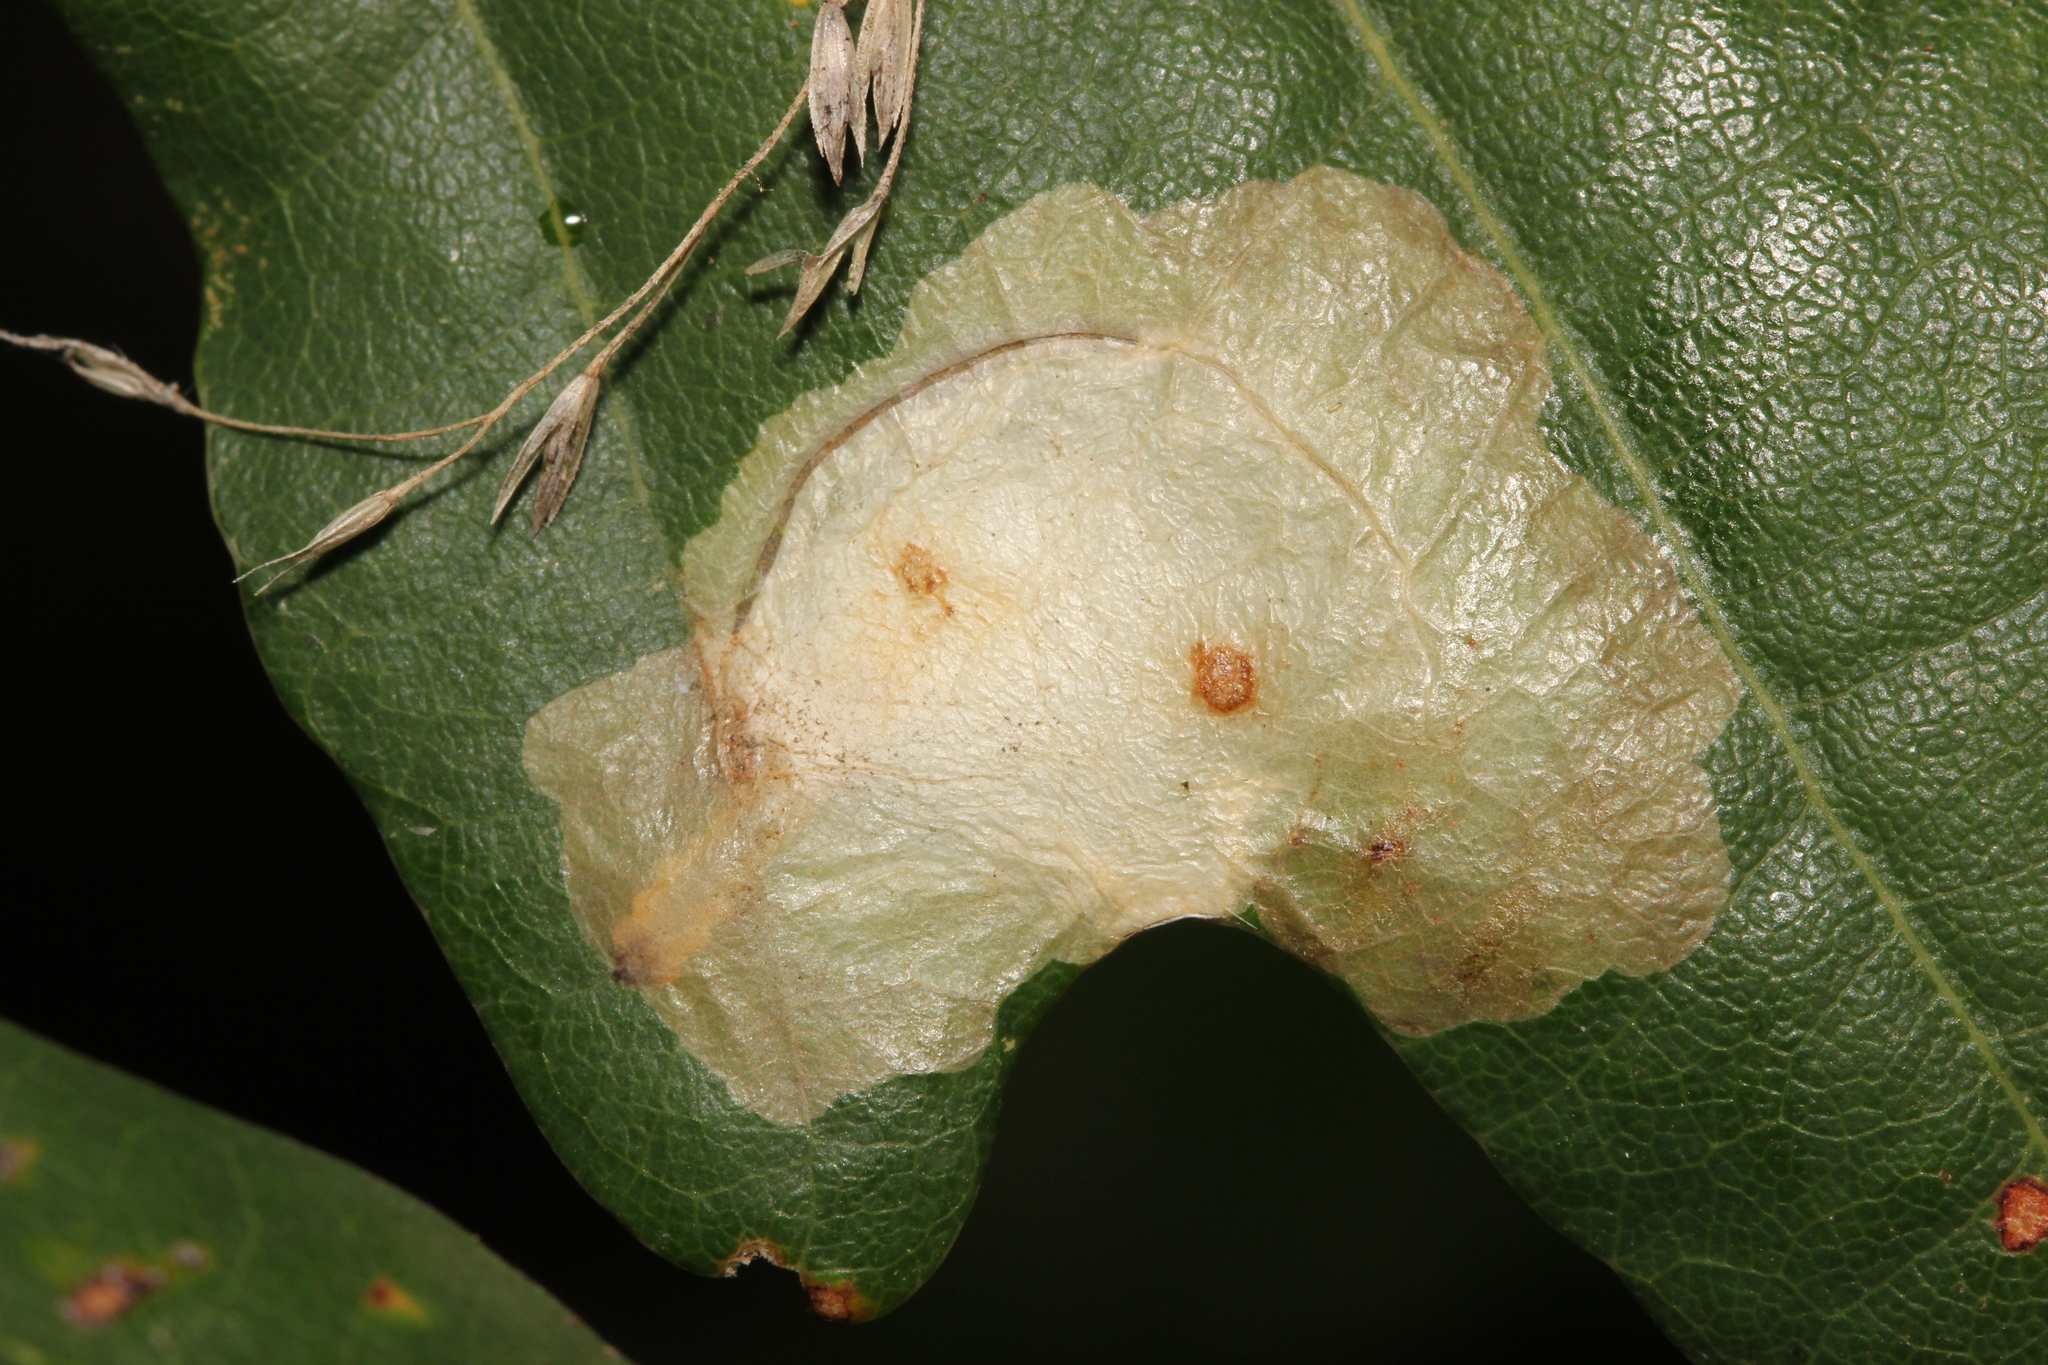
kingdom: Animalia
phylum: Arthropoda
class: Insecta
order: Lepidoptera
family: Tischeriidae
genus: Tischeria
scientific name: Tischeria ekebladella
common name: Oak carl
